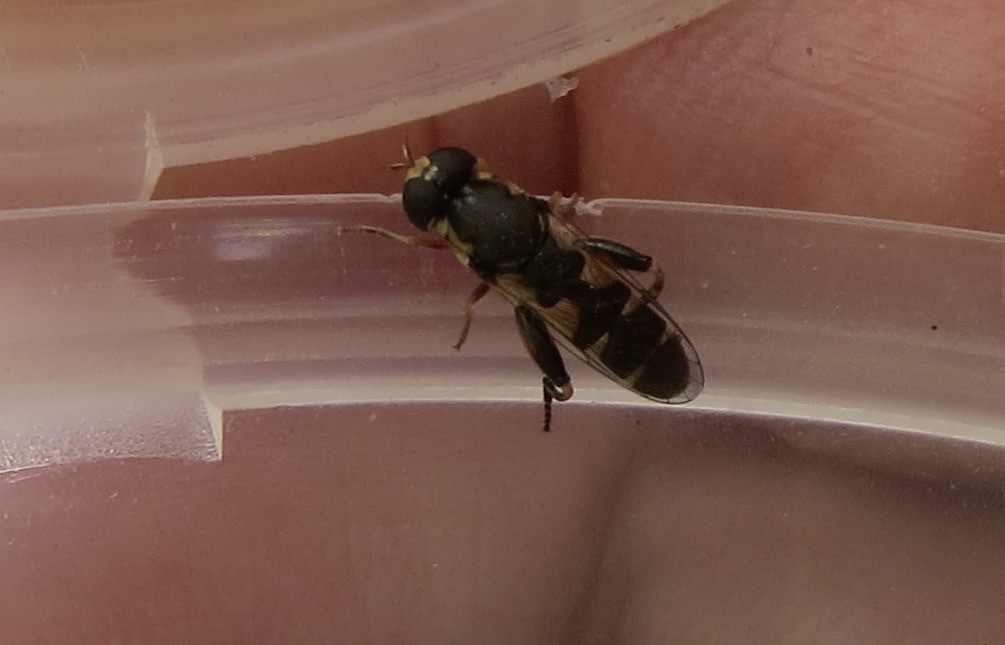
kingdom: Animalia
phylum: Arthropoda
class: Insecta
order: Diptera
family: Syrphidae
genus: Syritta
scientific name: Syritta pipiens
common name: Hover fly
